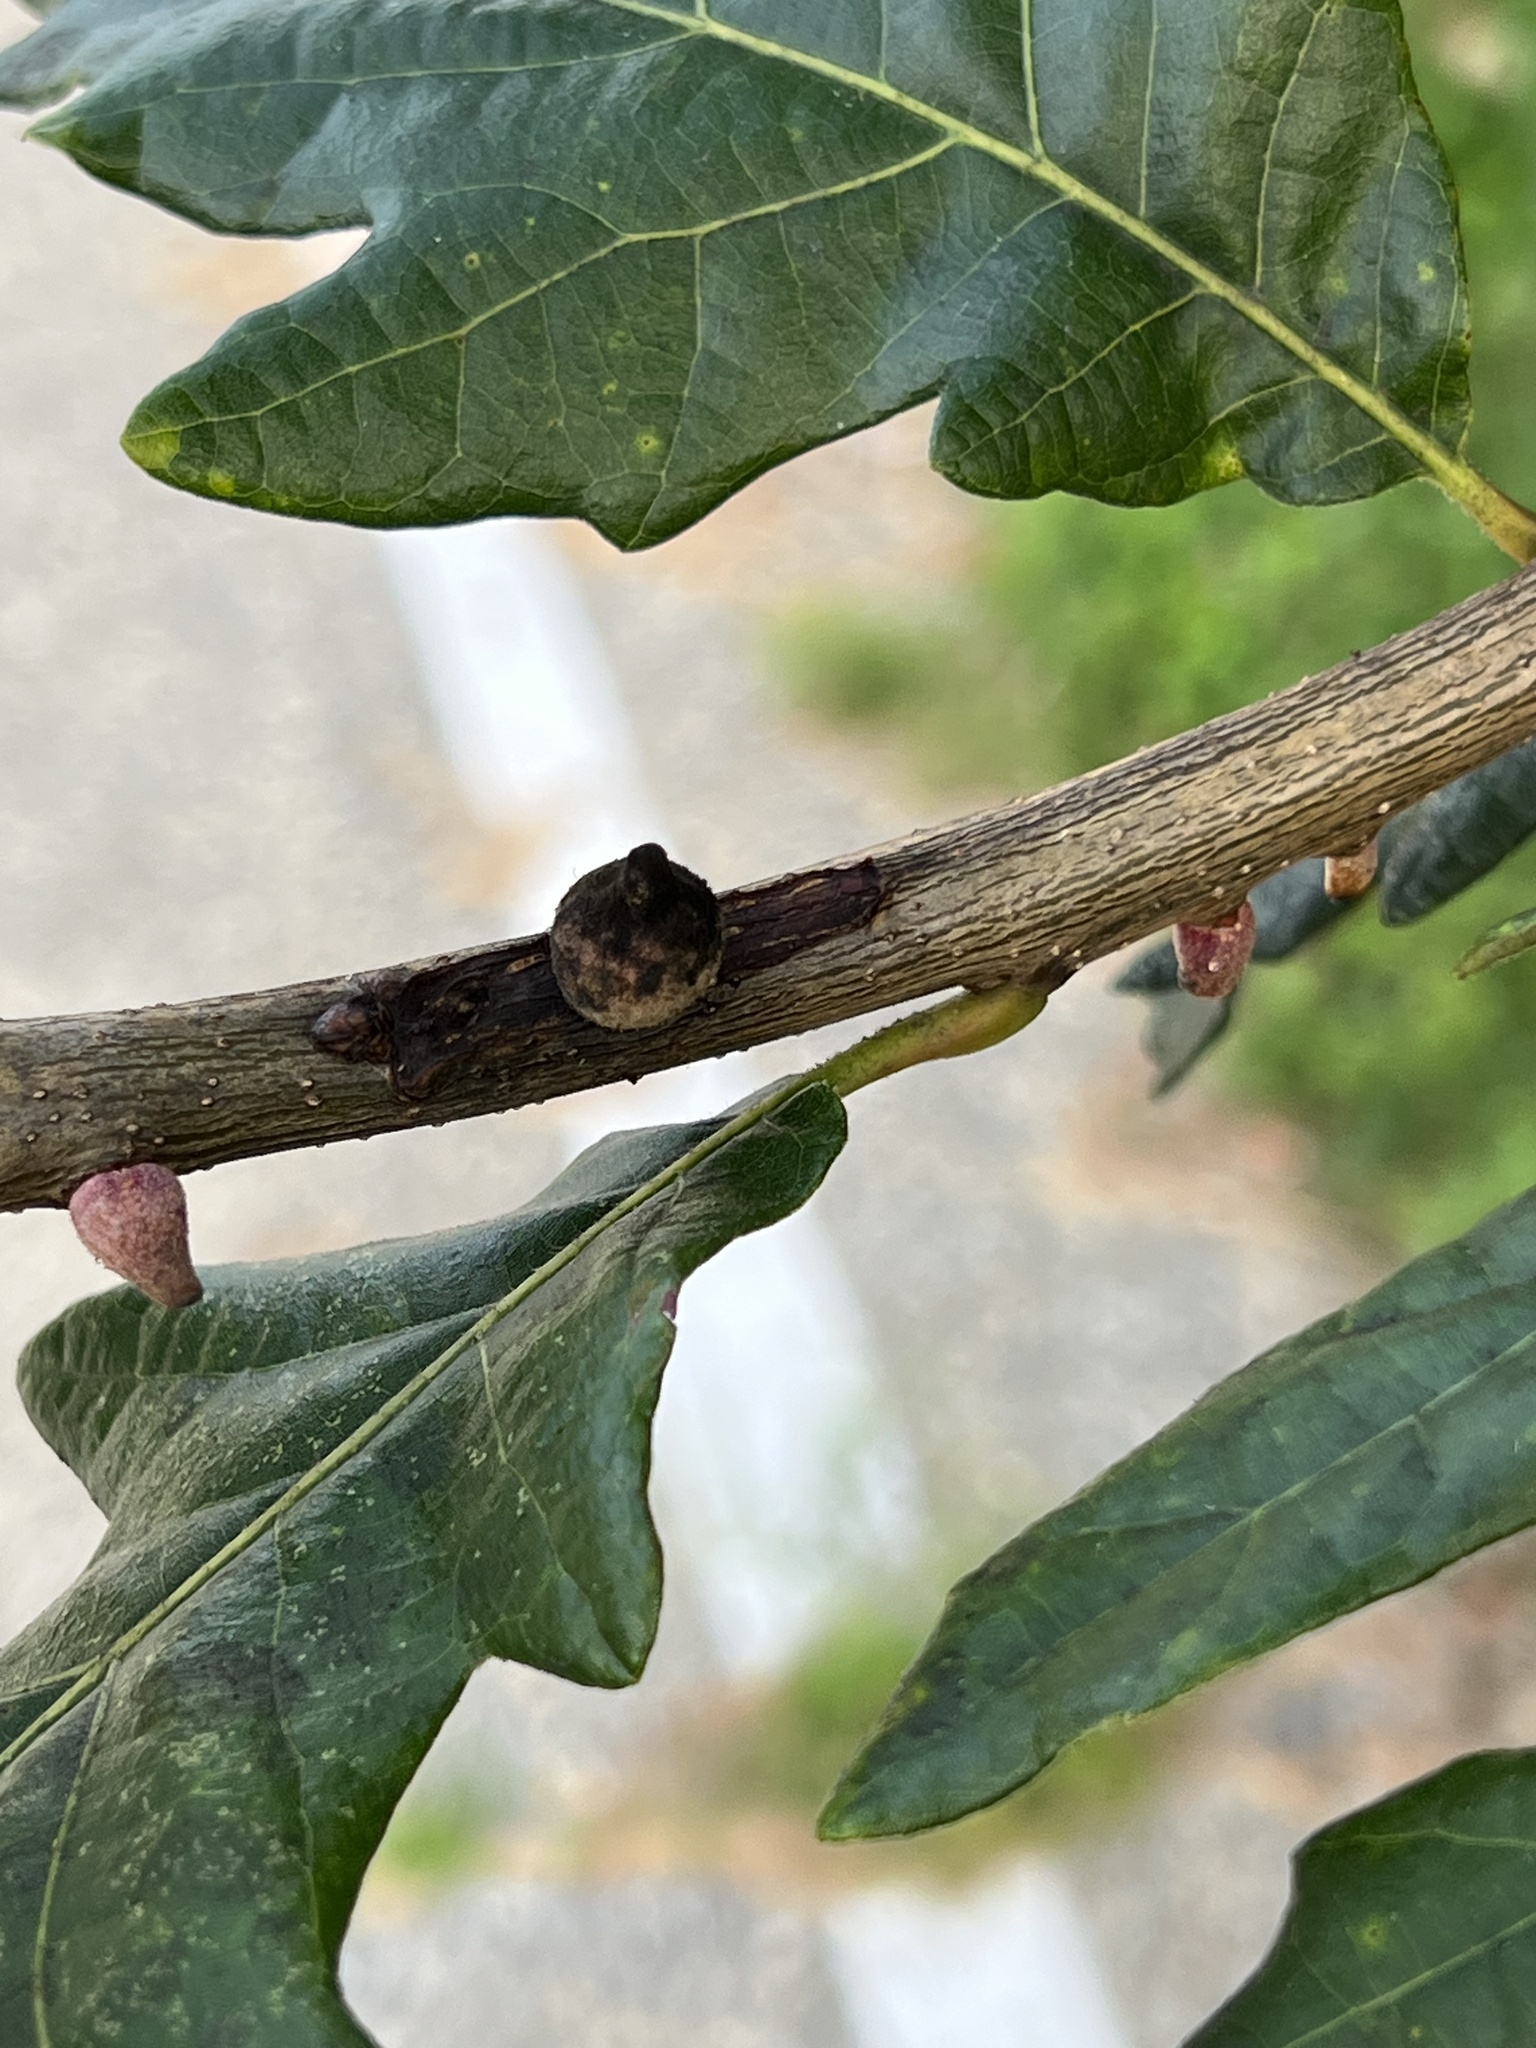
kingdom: Animalia
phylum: Arthropoda
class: Insecta
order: Hymenoptera
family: Cynipidae
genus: Disholcaspis
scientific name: Disholcaspis
